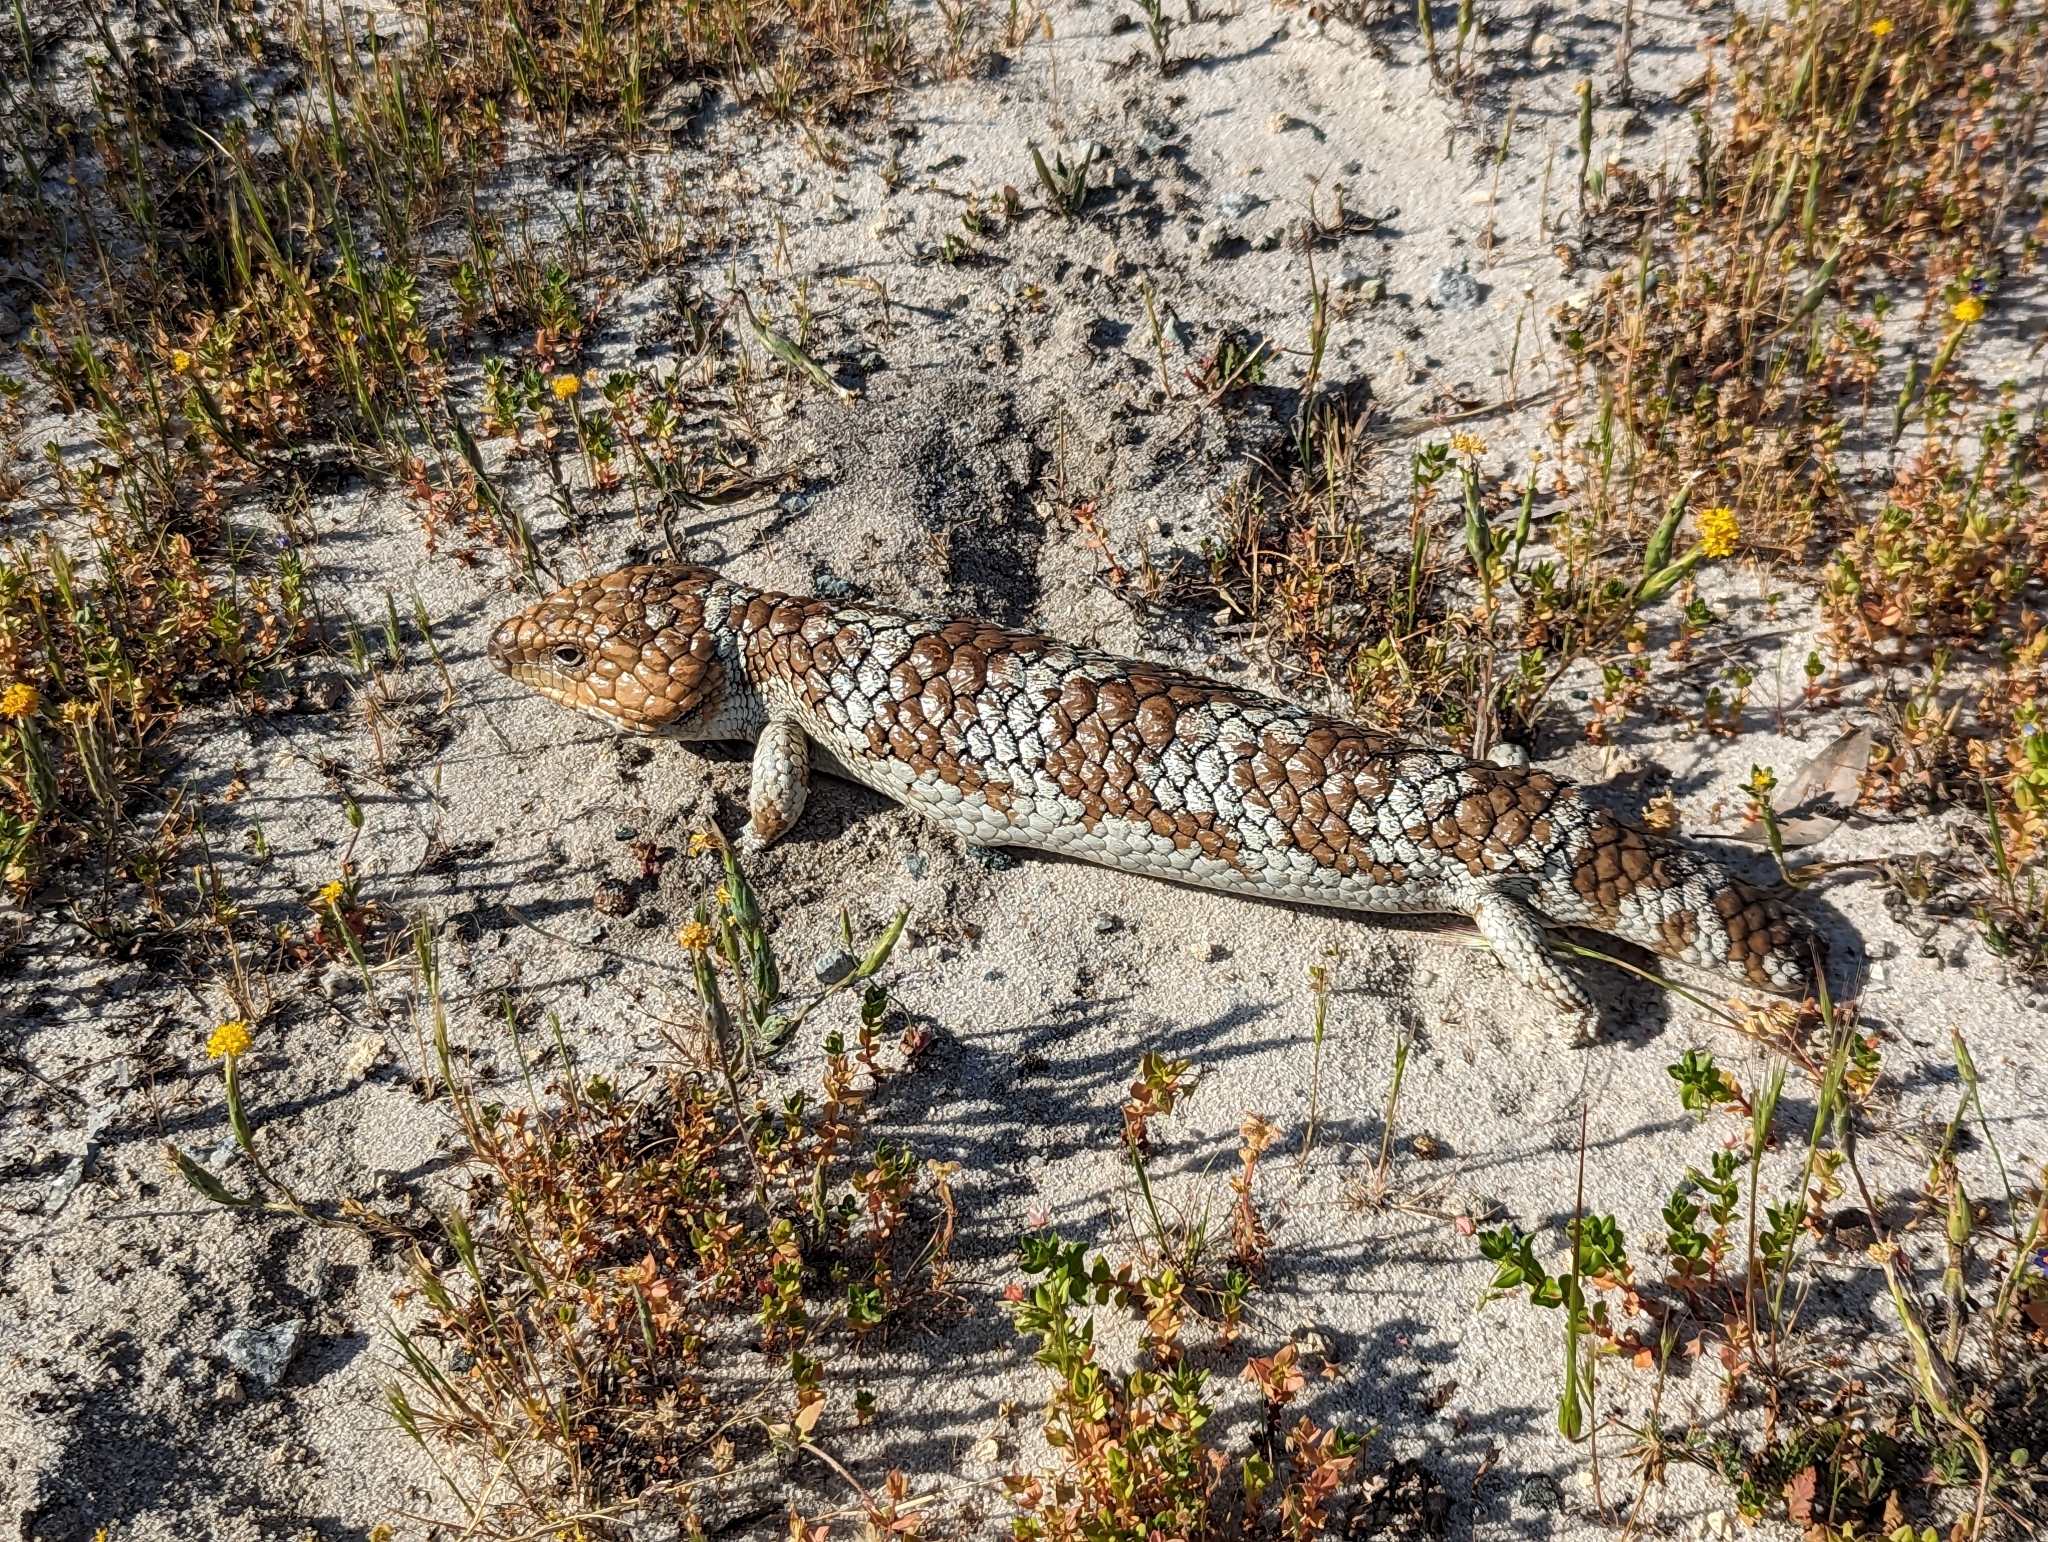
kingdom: Animalia
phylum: Chordata
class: Squamata
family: Scincidae
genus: Tiliqua
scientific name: Tiliqua rugosa
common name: Pinecone lizard
